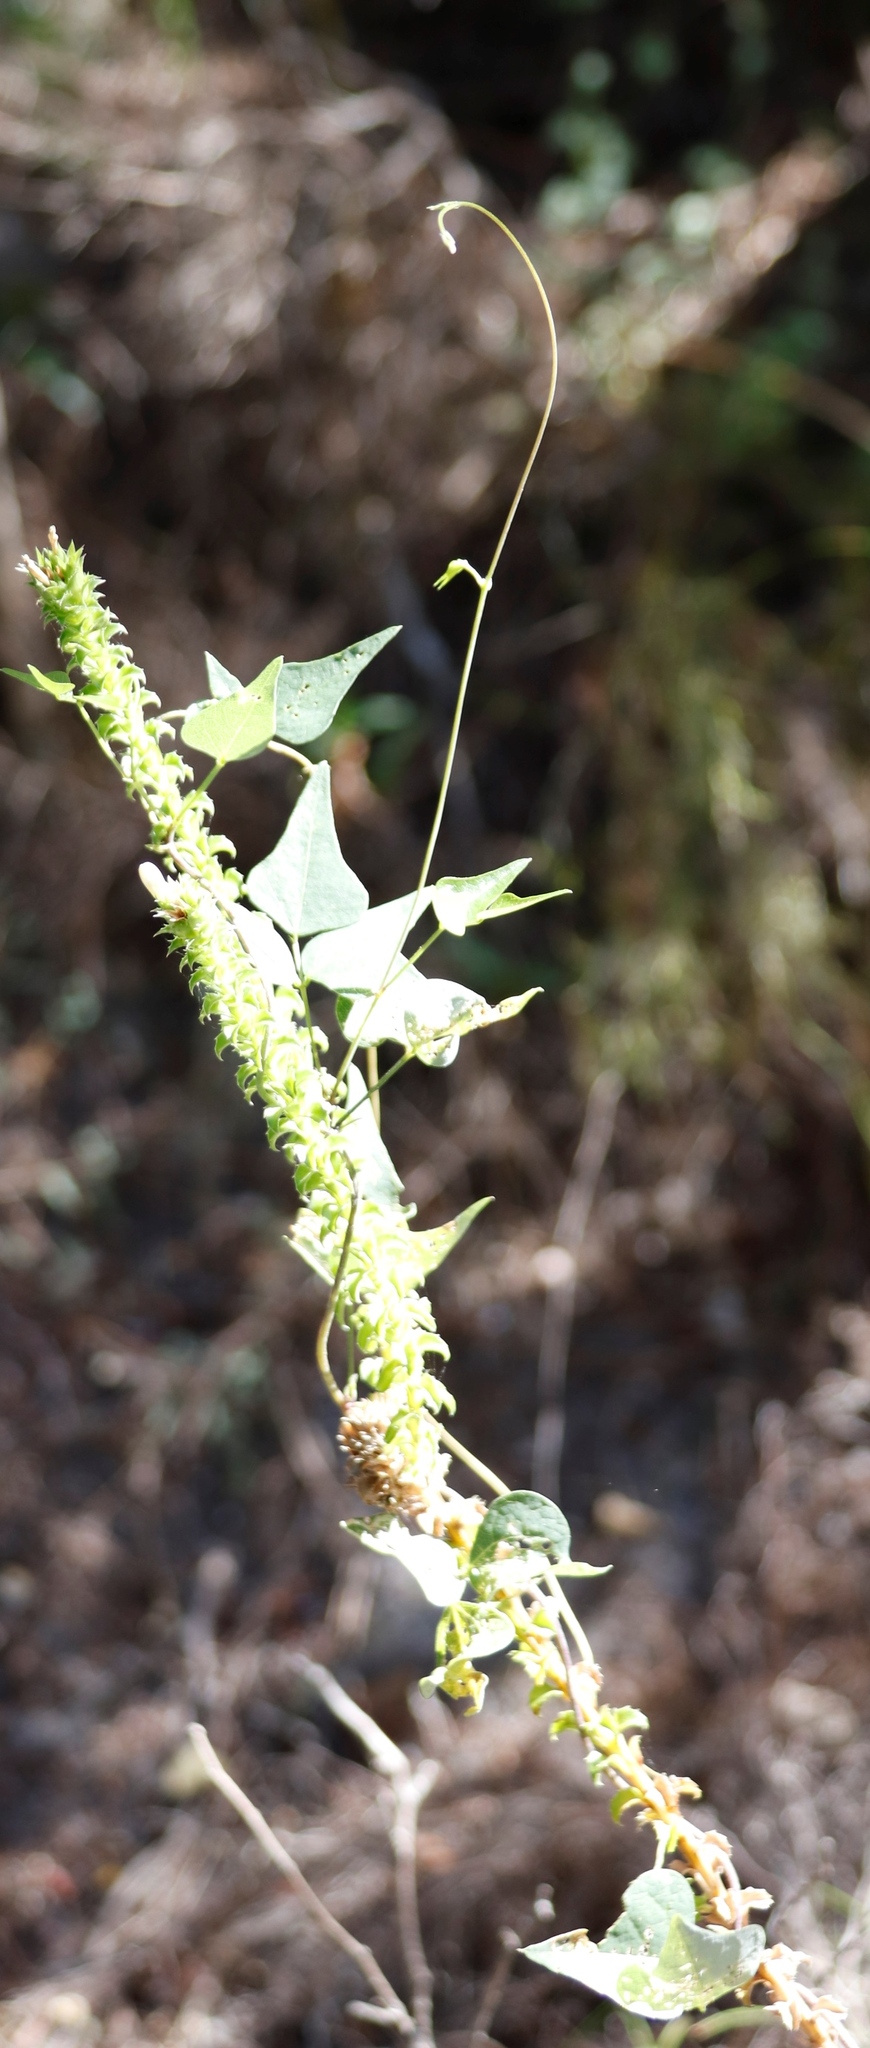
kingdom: Plantae
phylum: Tracheophyta
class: Magnoliopsida
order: Fabales
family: Fabaceae
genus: Dipogon
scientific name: Dipogon lignosus
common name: Okie bean
